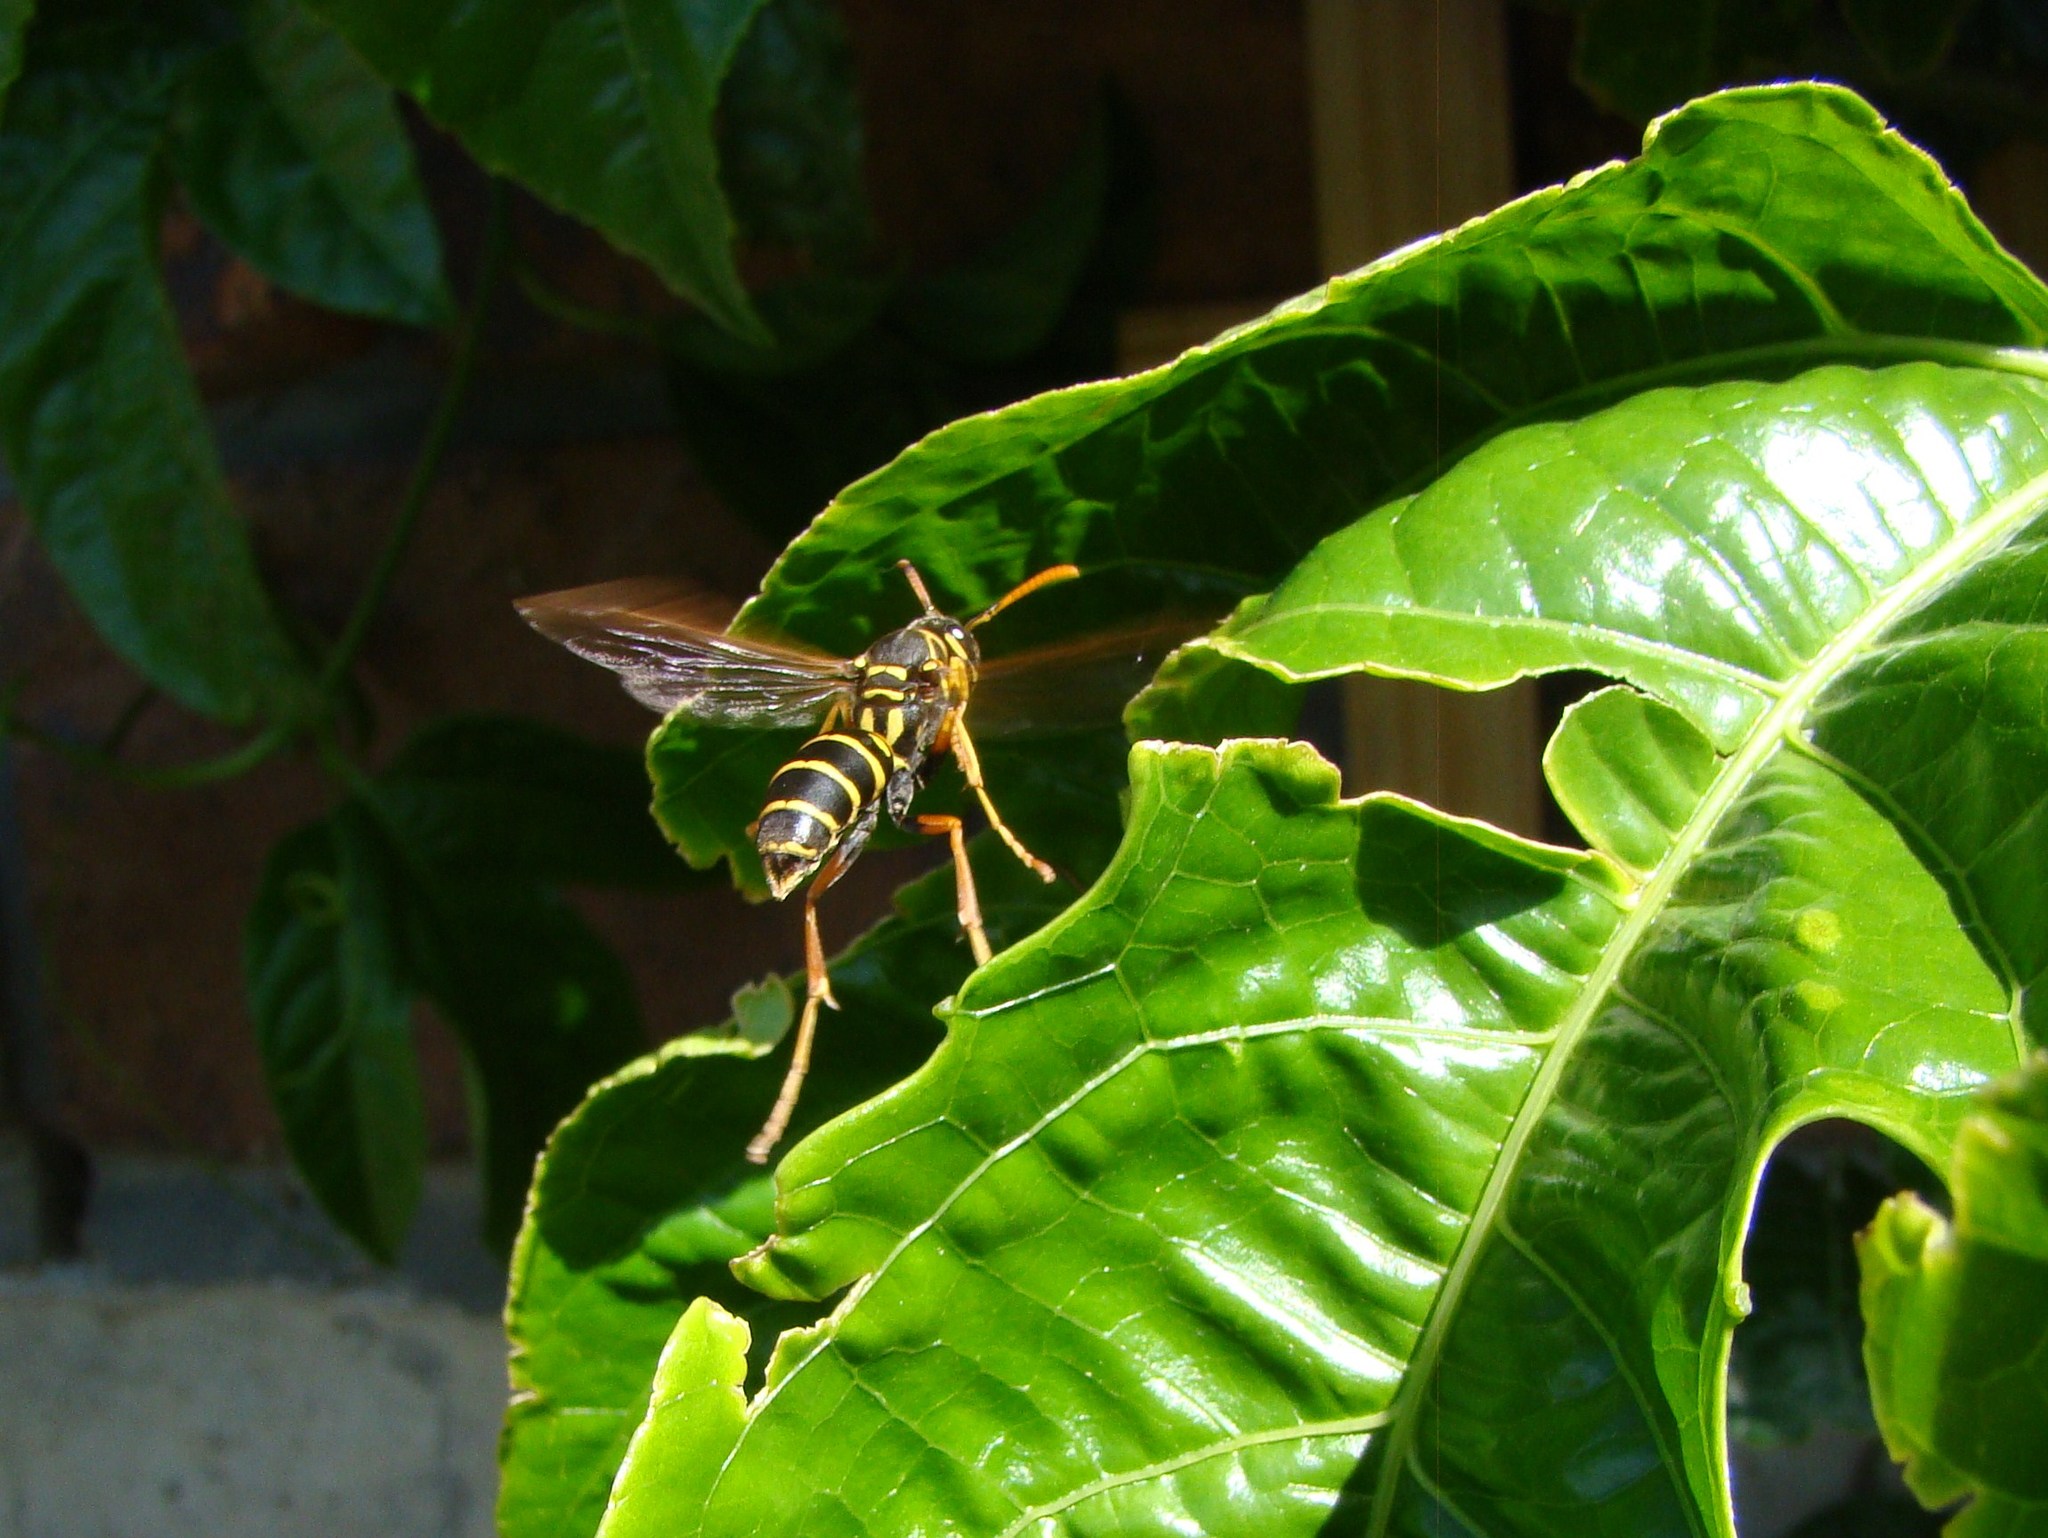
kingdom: Animalia
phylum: Arthropoda
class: Insecta
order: Hymenoptera
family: Eumenidae
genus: Polistes
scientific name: Polistes chinensis
